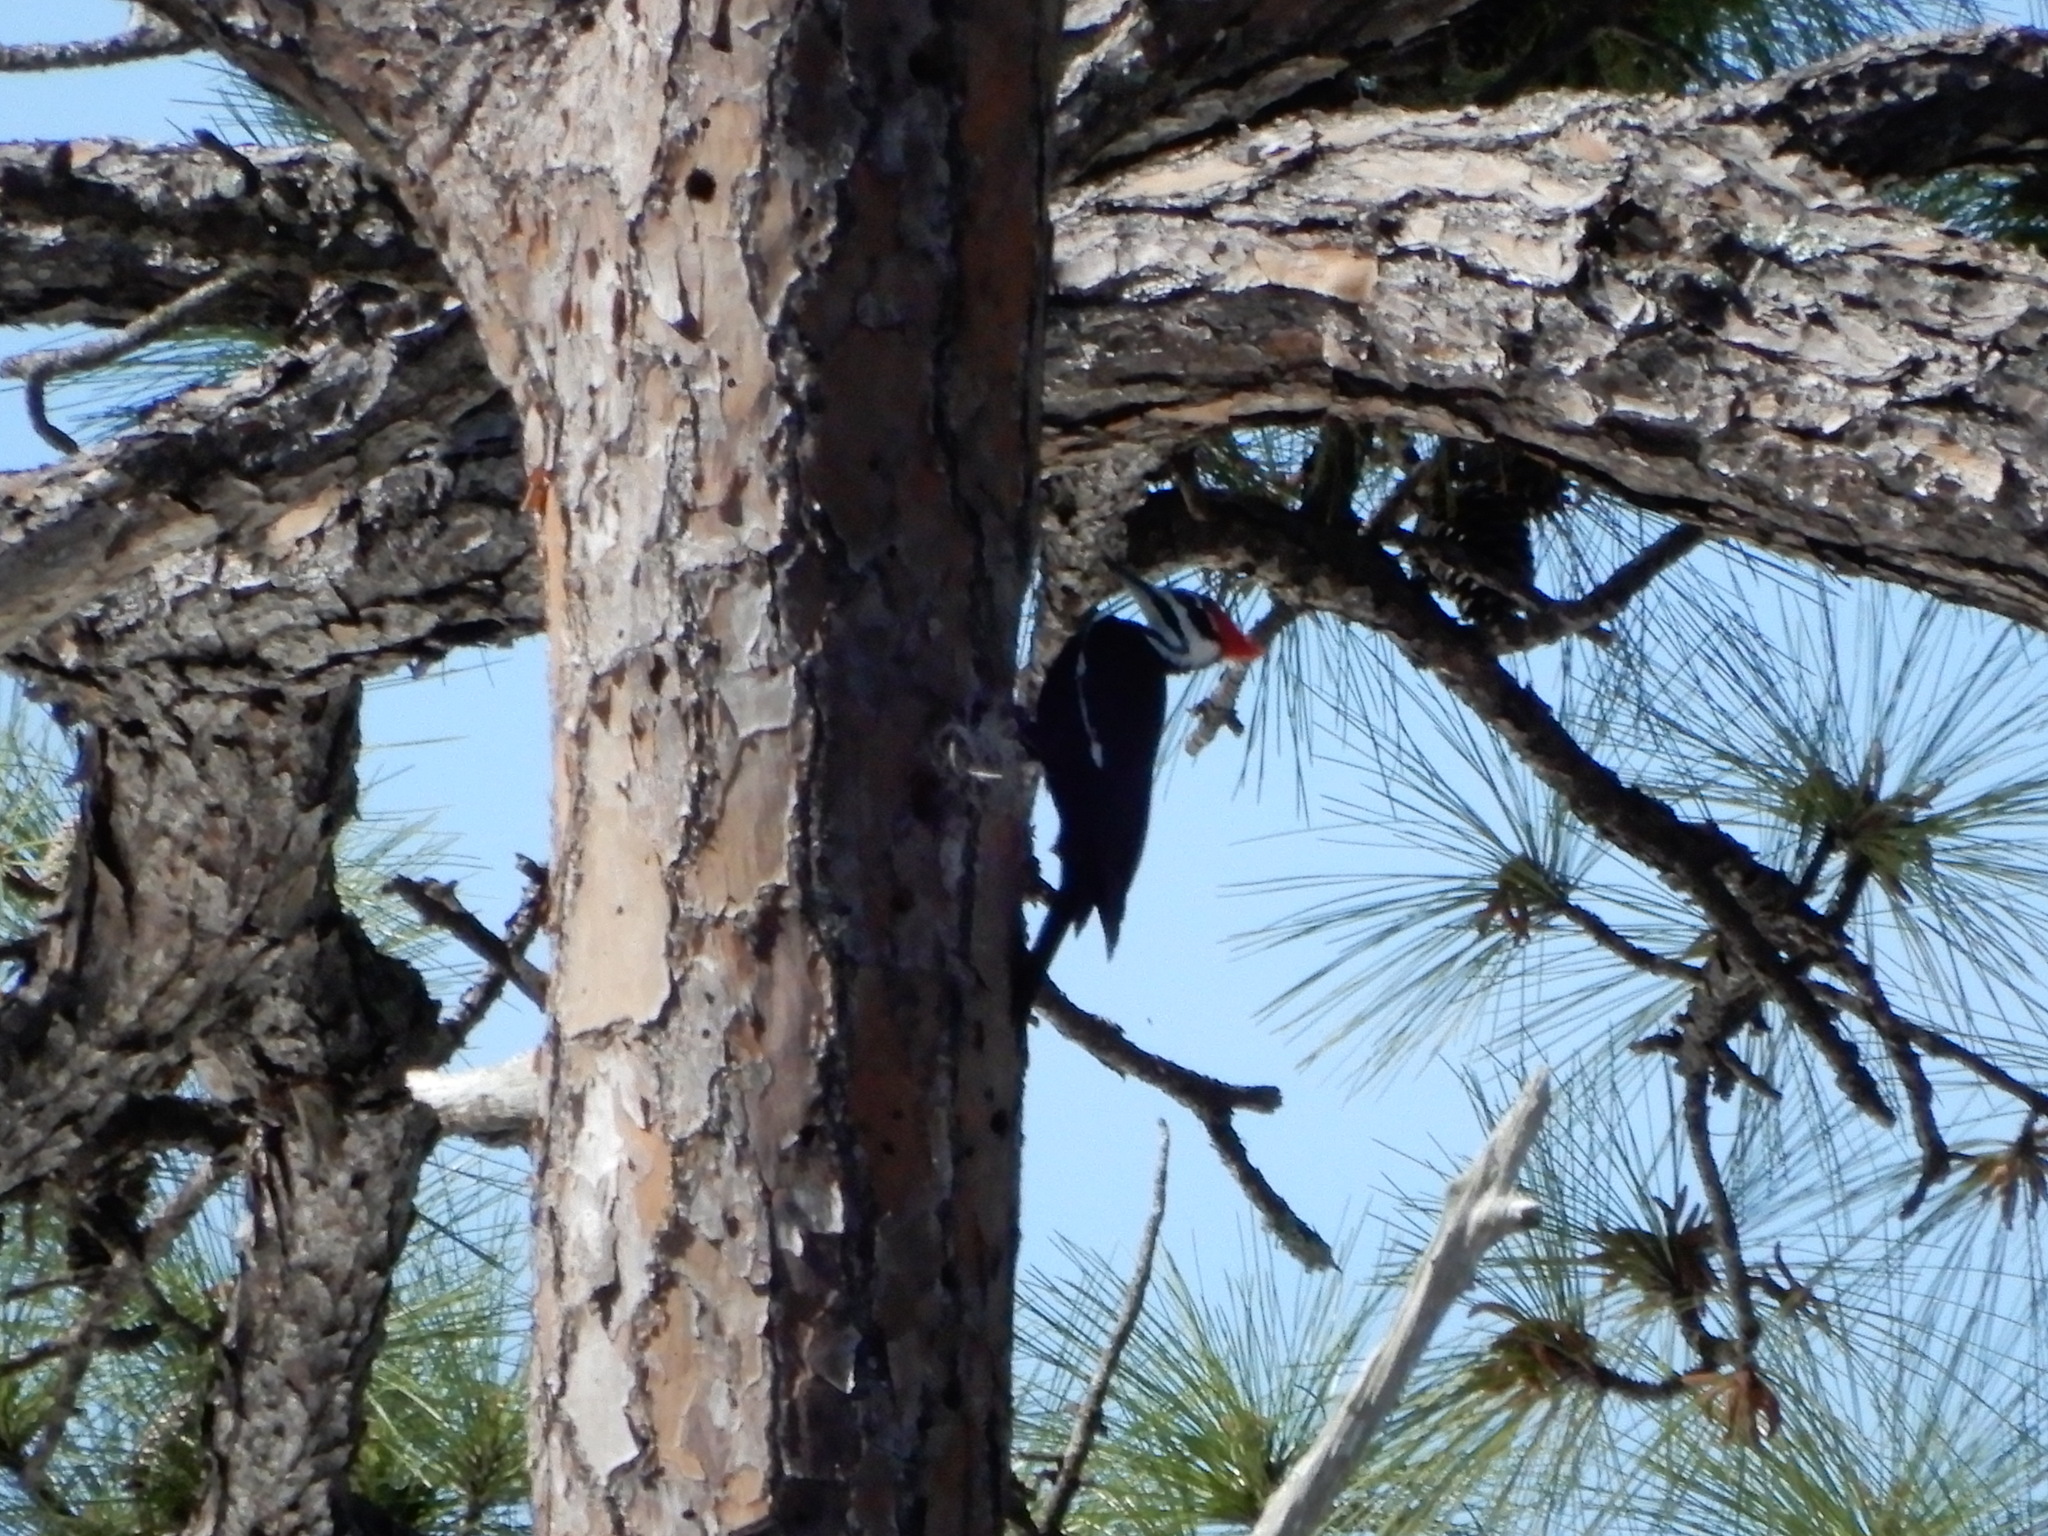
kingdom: Animalia
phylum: Chordata
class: Aves
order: Piciformes
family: Picidae
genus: Dryocopus
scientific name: Dryocopus pileatus
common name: Pileated woodpecker
